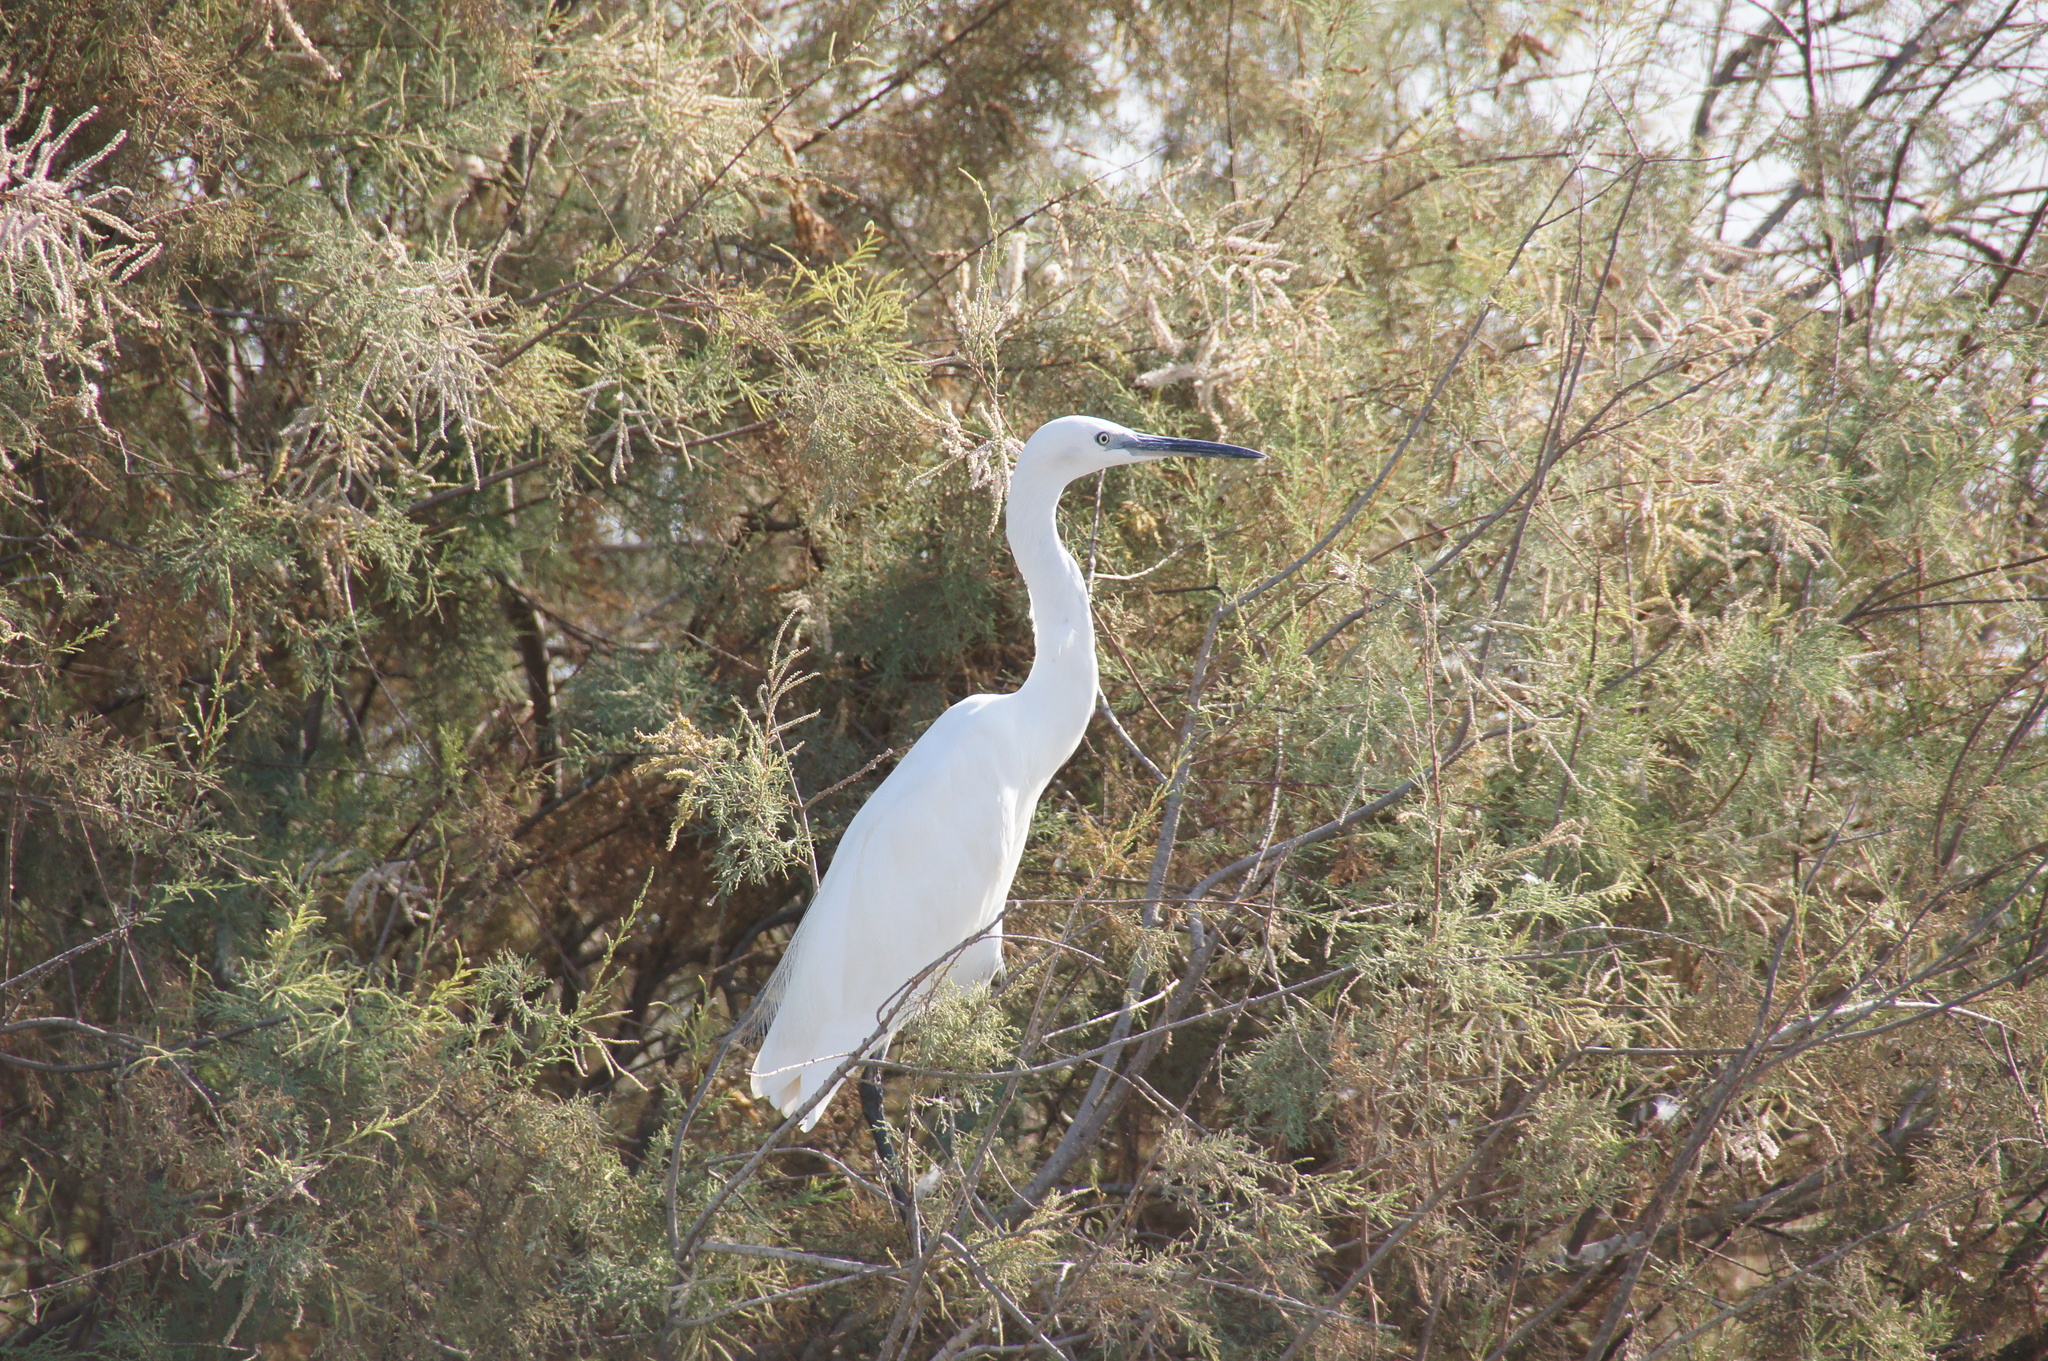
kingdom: Animalia
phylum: Chordata
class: Aves
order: Pelecaniformes
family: Ardeidae
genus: Egretta
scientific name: Egretta garzetta
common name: Little egret
